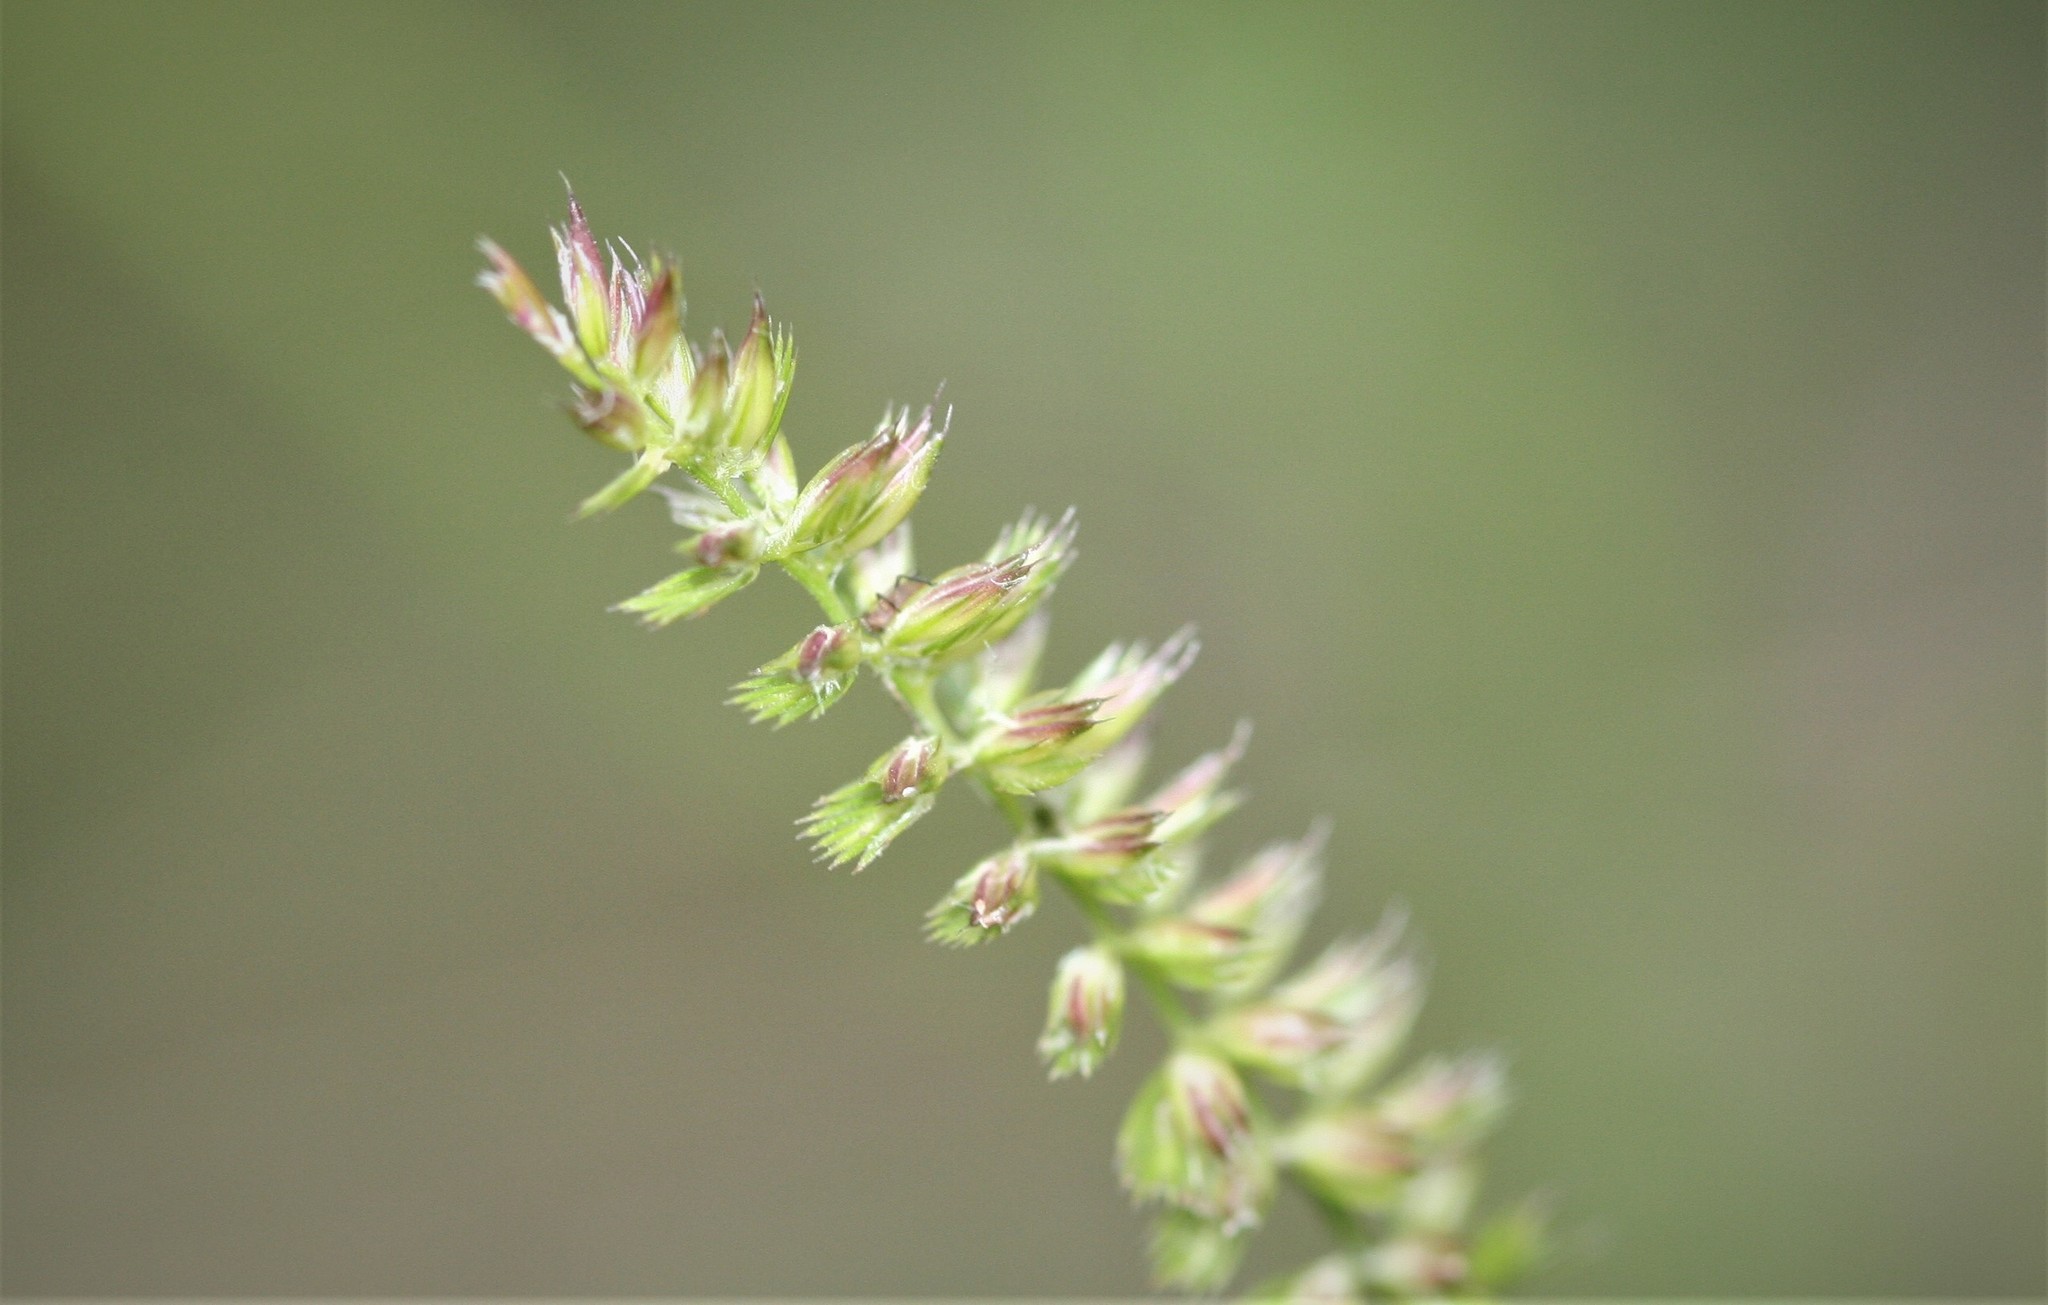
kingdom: Plantae
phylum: Tracheophyta
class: Liliopsida
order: Poales
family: Poaceae
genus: Cynosurus
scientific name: Cynosurus cristatus
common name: Crested dog's-tail
